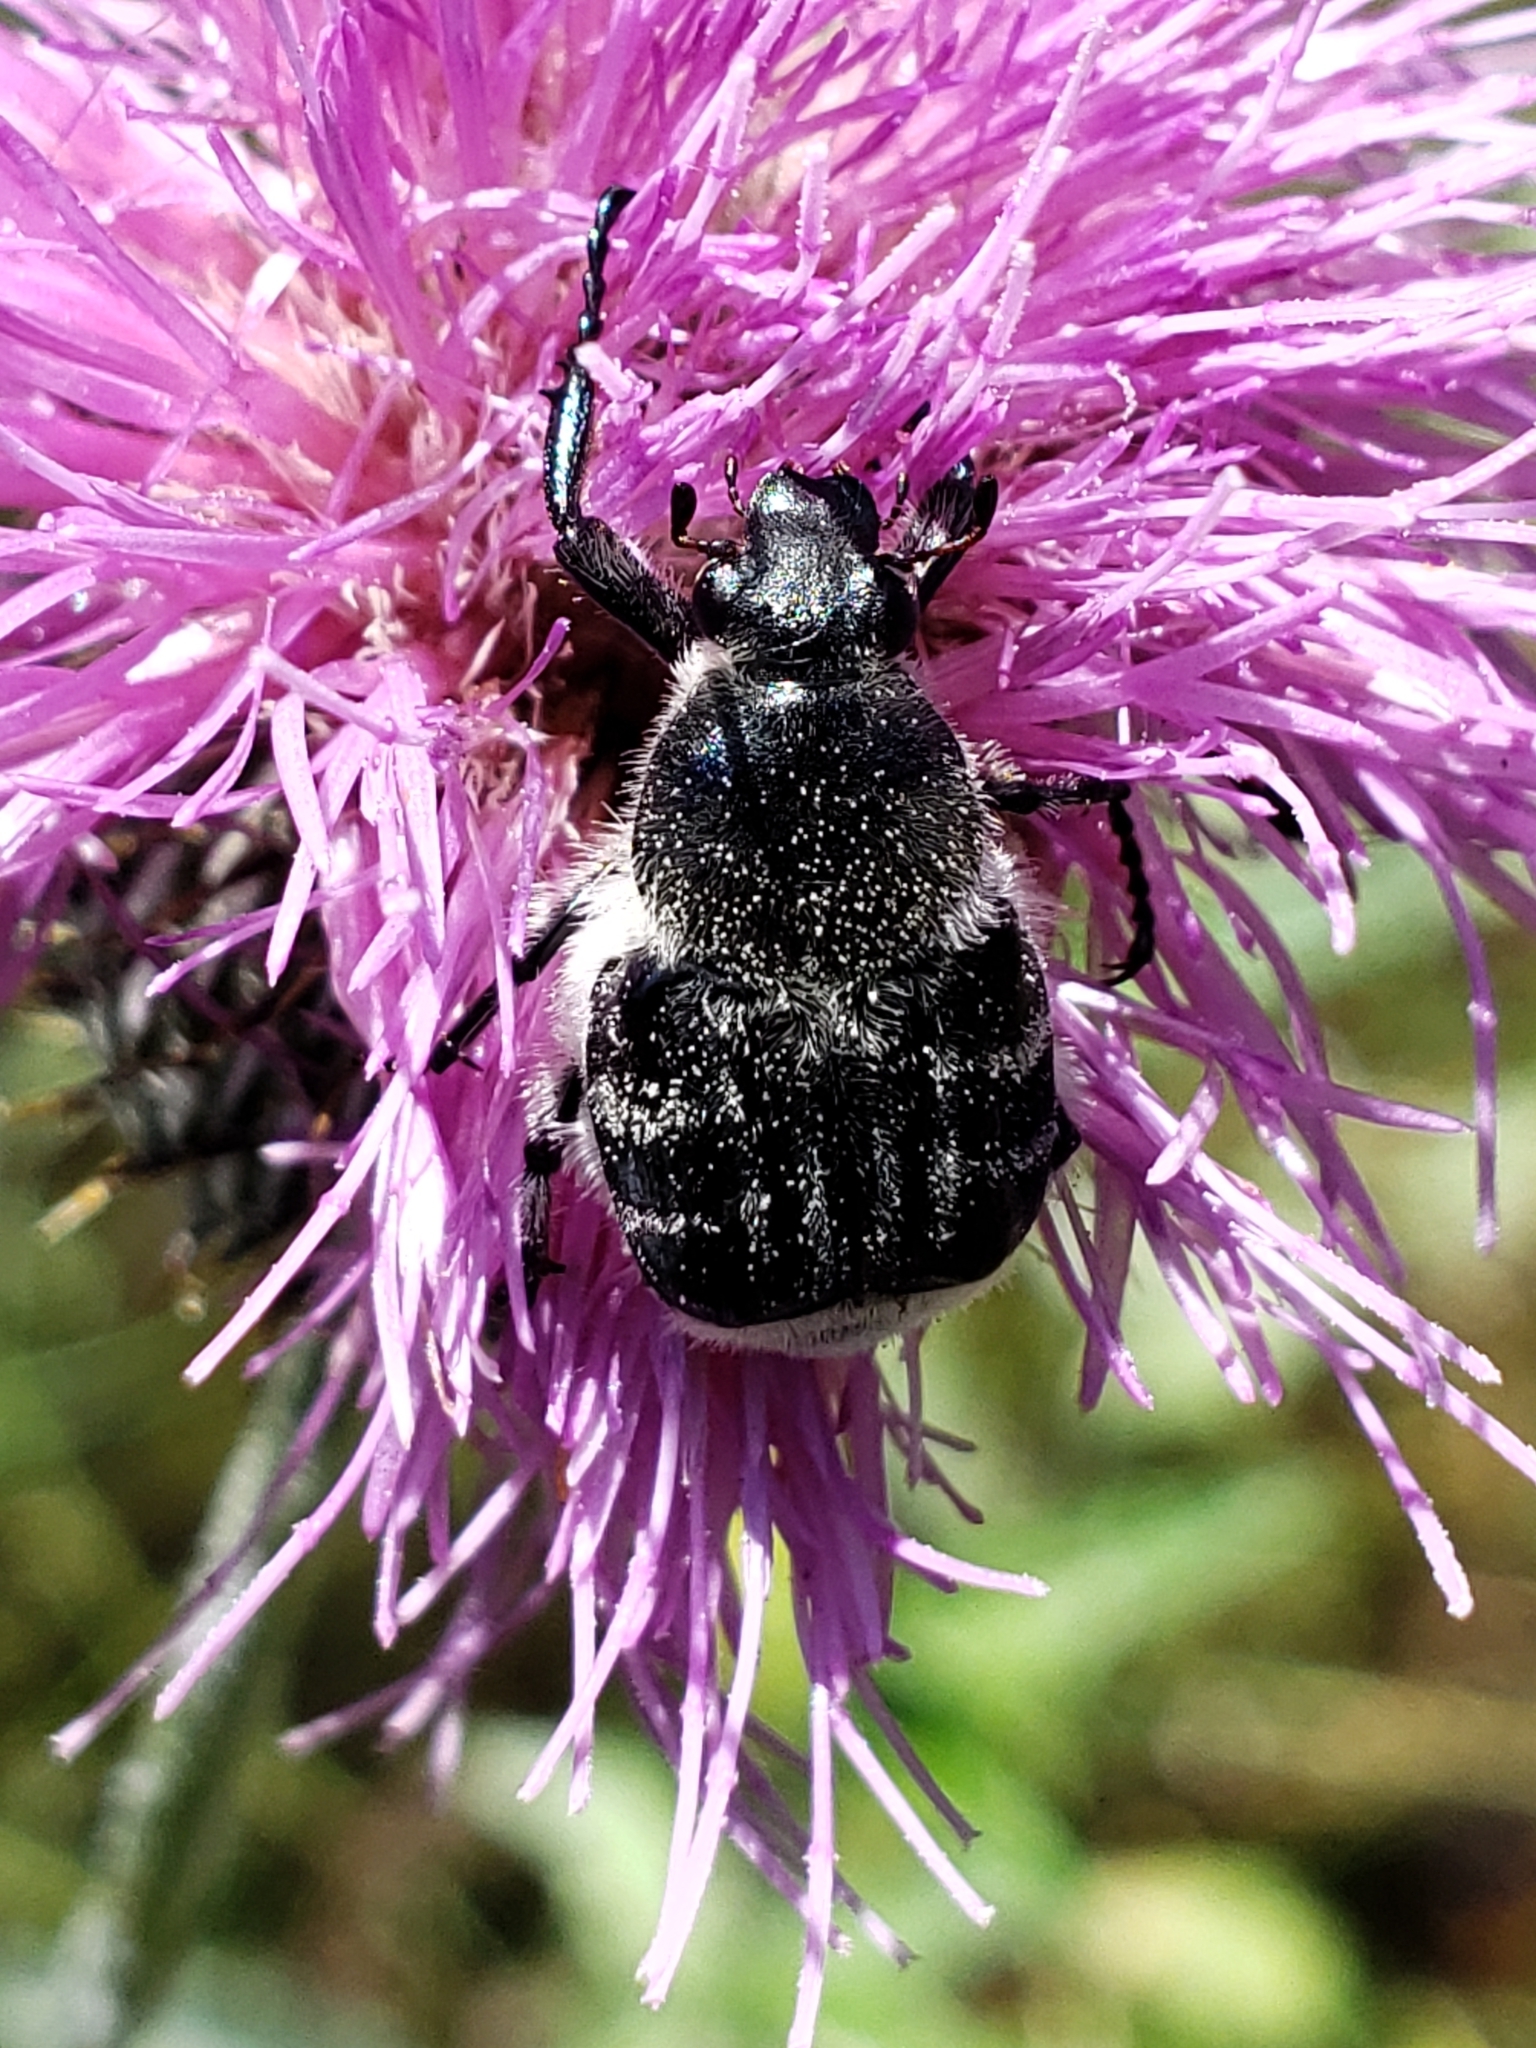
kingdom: Animalia
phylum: Arthropoda
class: Insecta
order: Coleoptera
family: Scarabaeidae
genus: Trichiotinus
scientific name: Trichiotinus texanus
